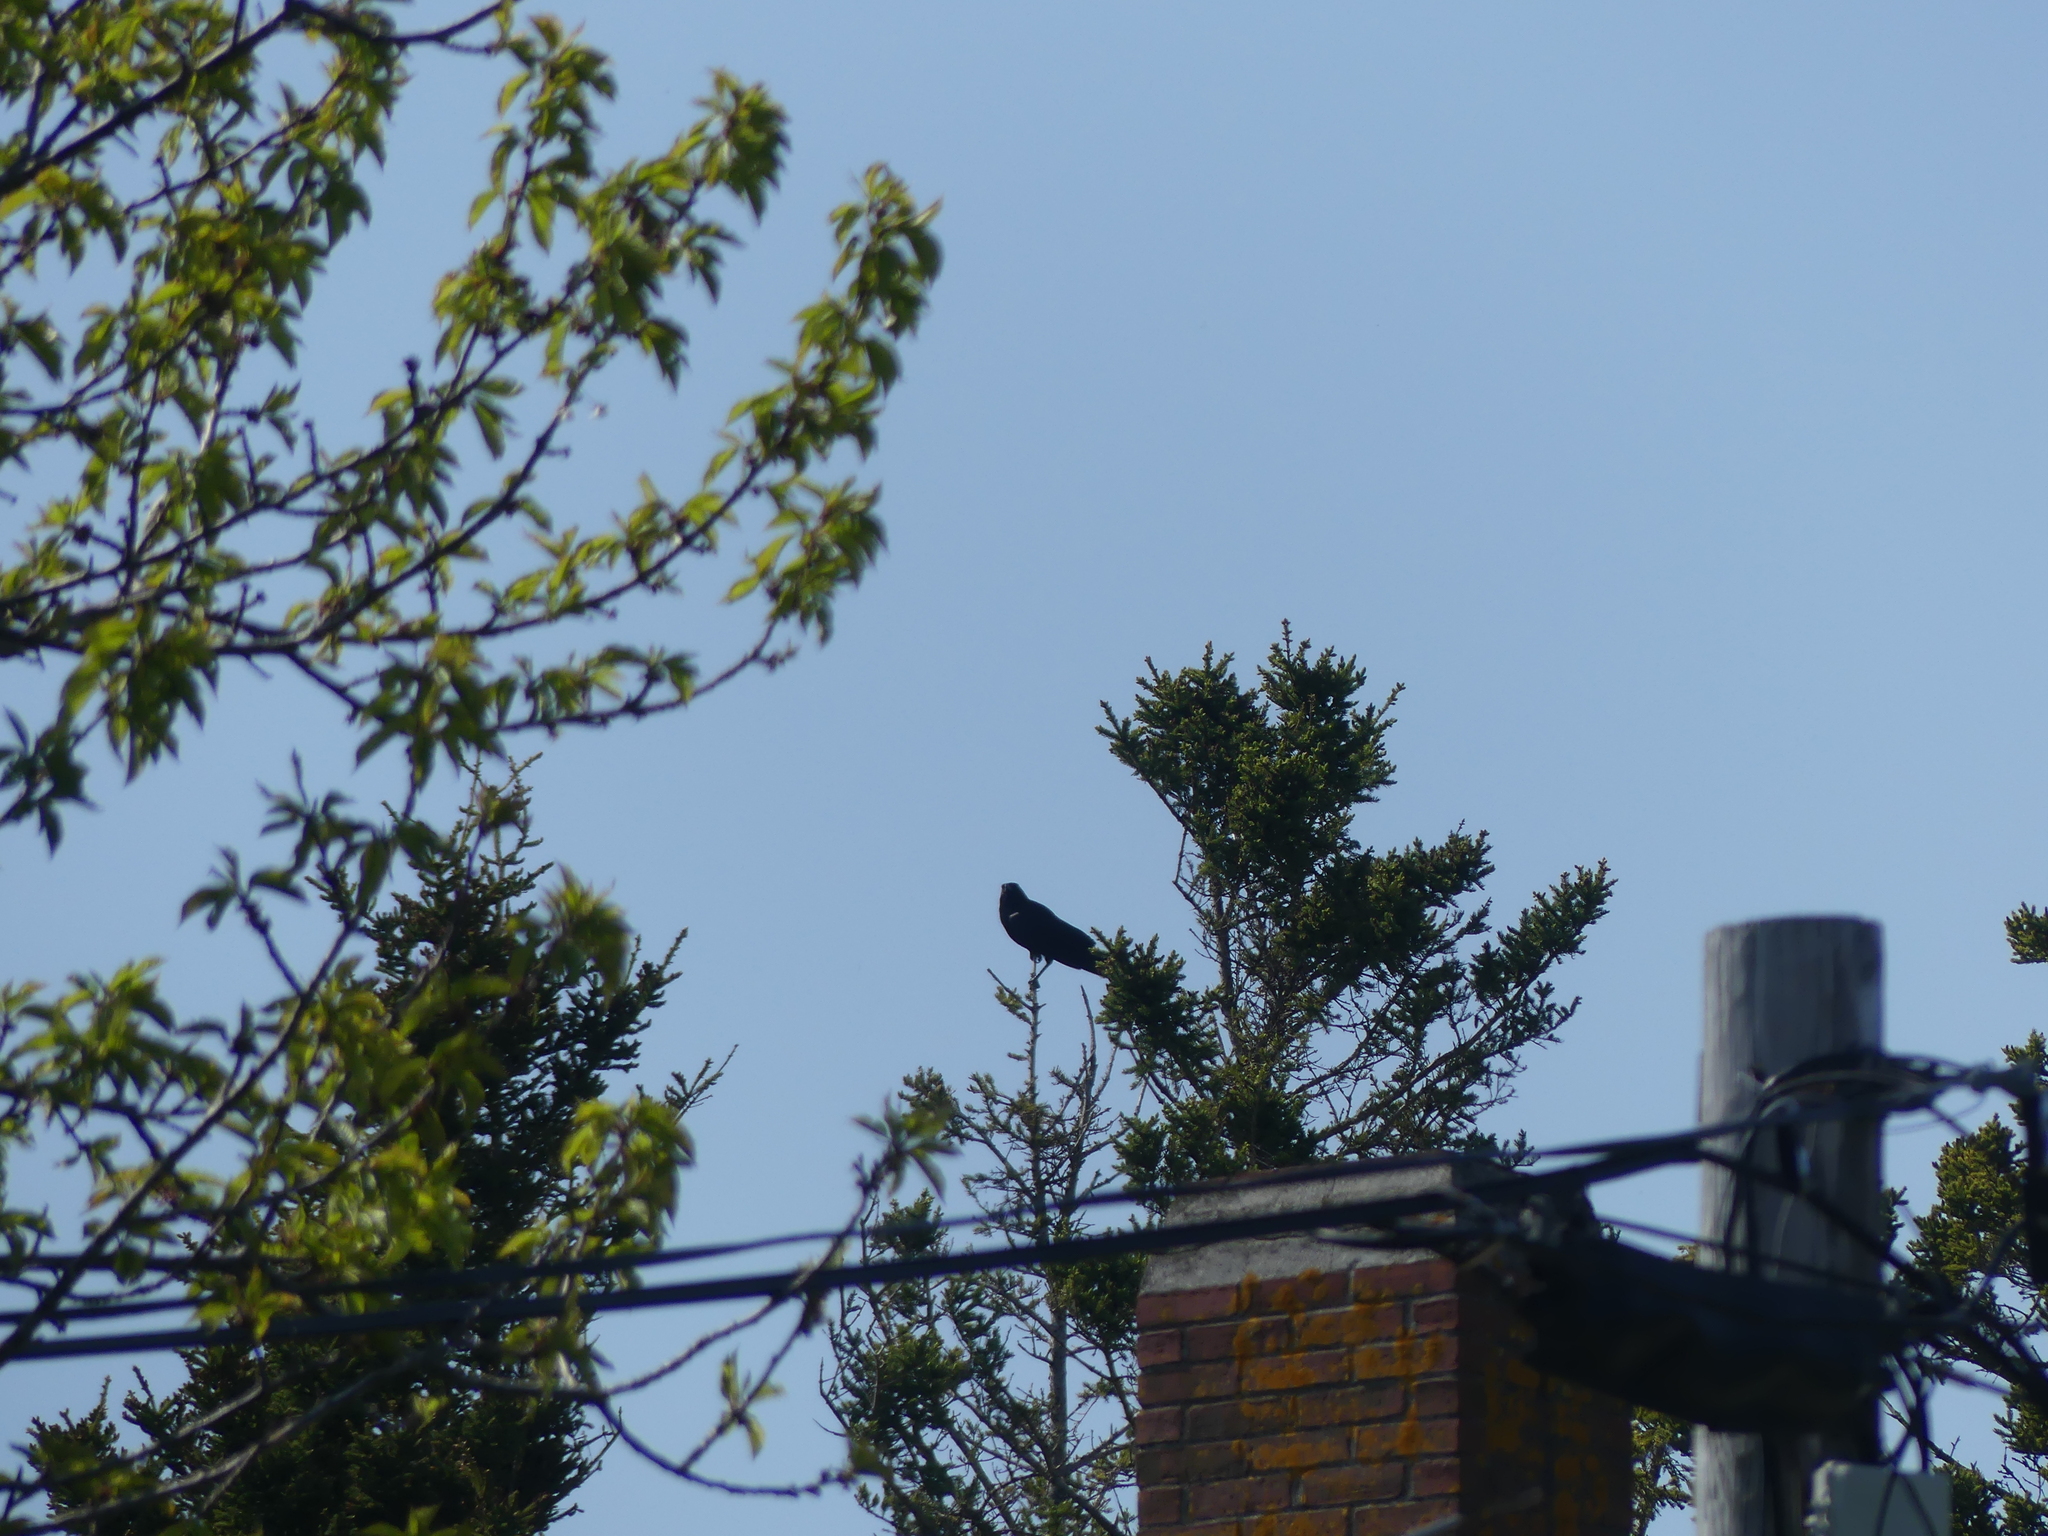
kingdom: Animalia
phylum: Chordata
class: Aves
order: Passeriformes
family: Corvidae
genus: Corvus
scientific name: Corvus brachyrhynchos
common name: American crow
